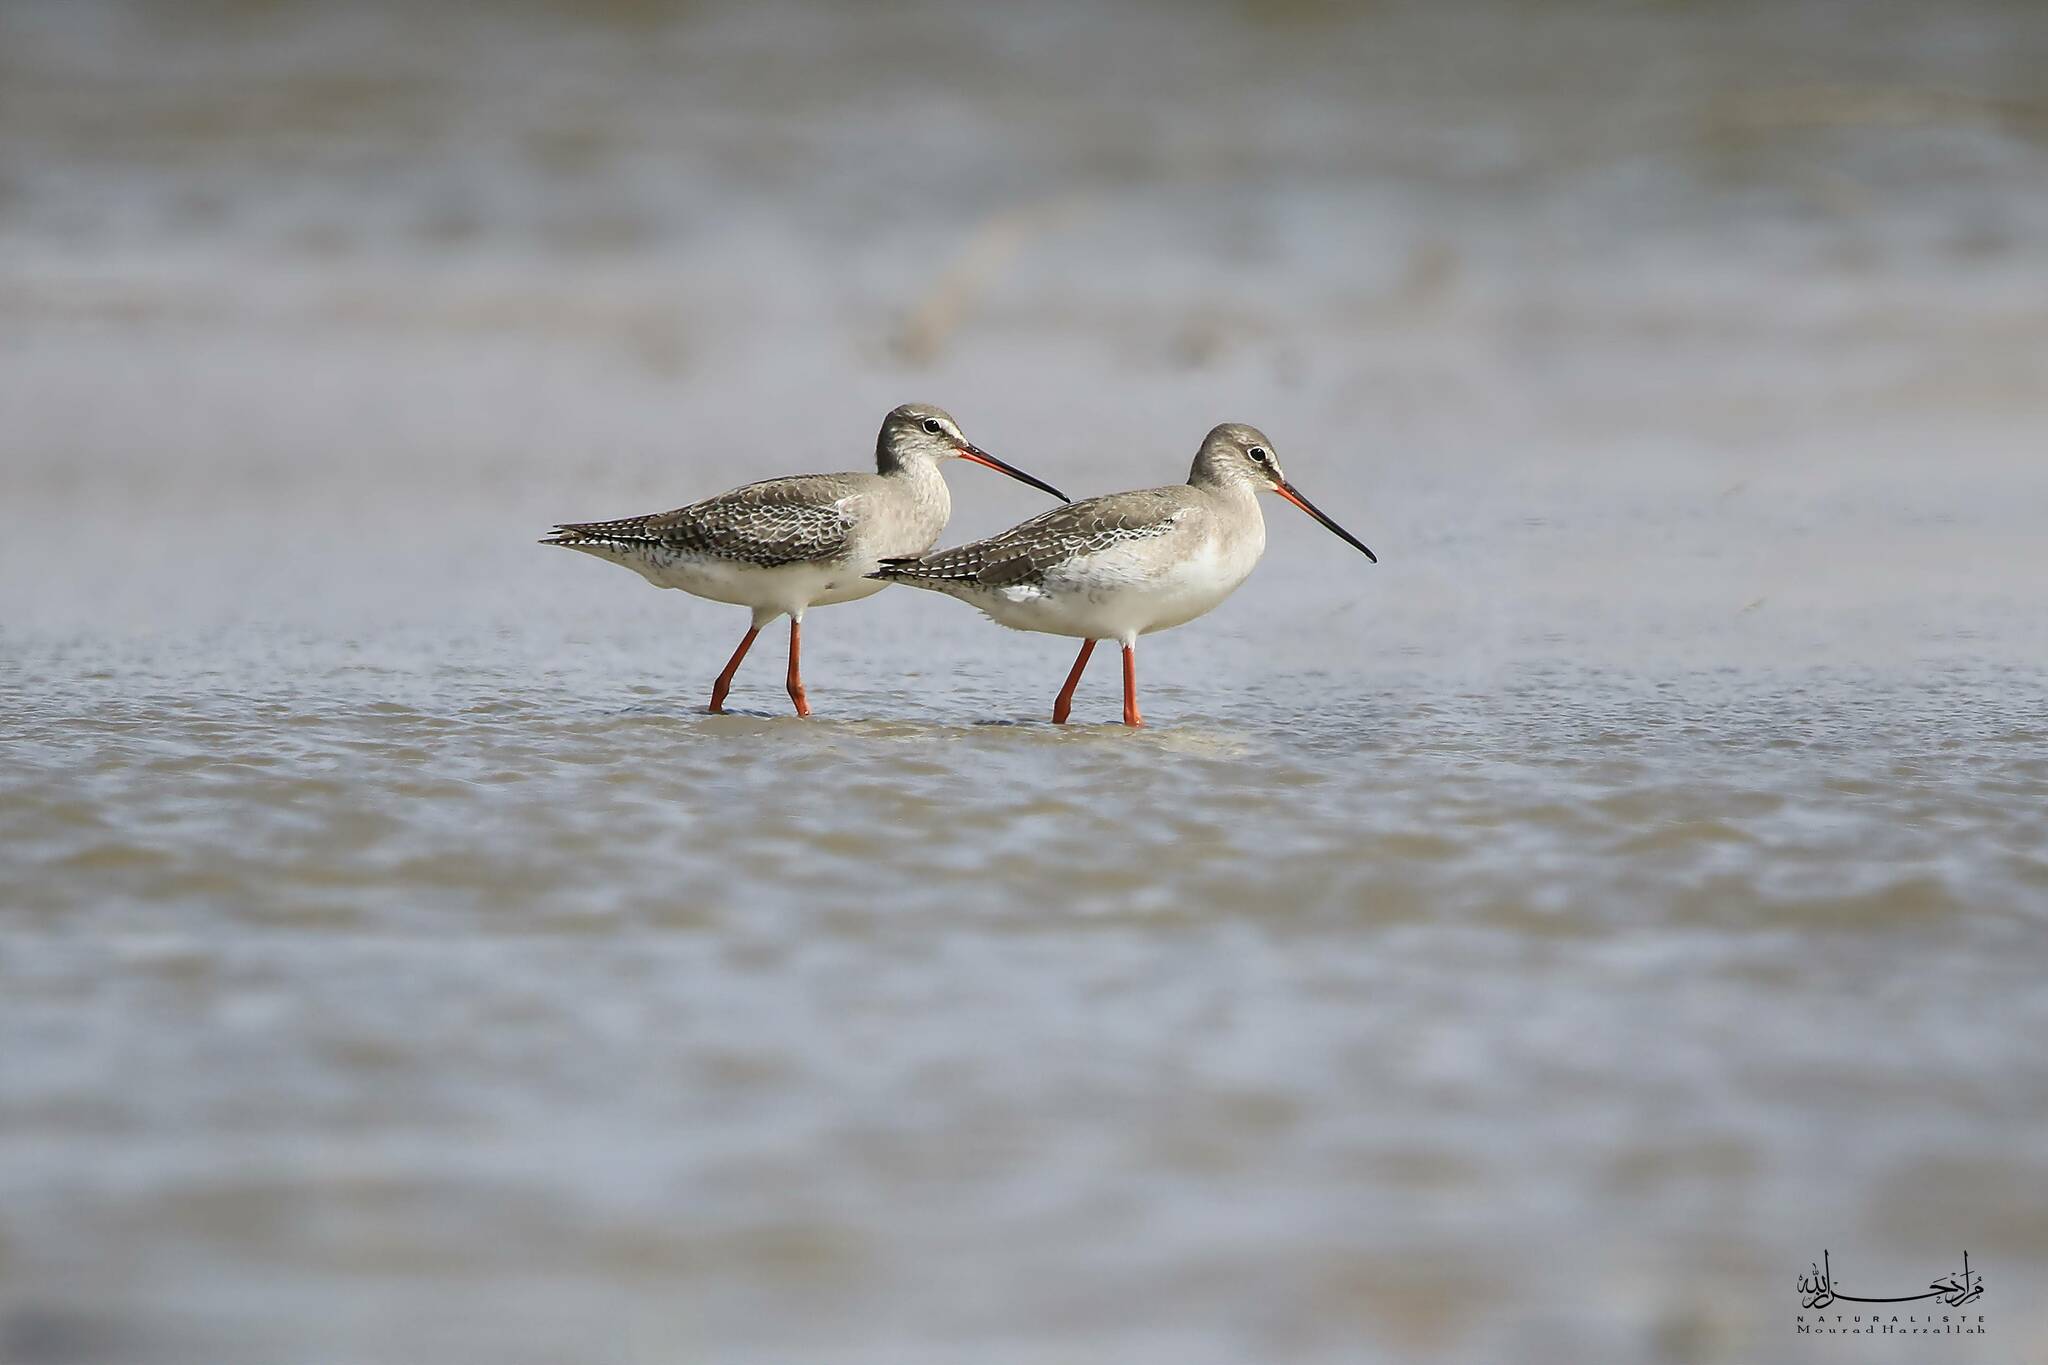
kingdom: Animalia
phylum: Chordata
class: Aves
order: Charadriiformes
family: Scolopacidae
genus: Tringa
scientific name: Tringa erythropus
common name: Spotted redshank
